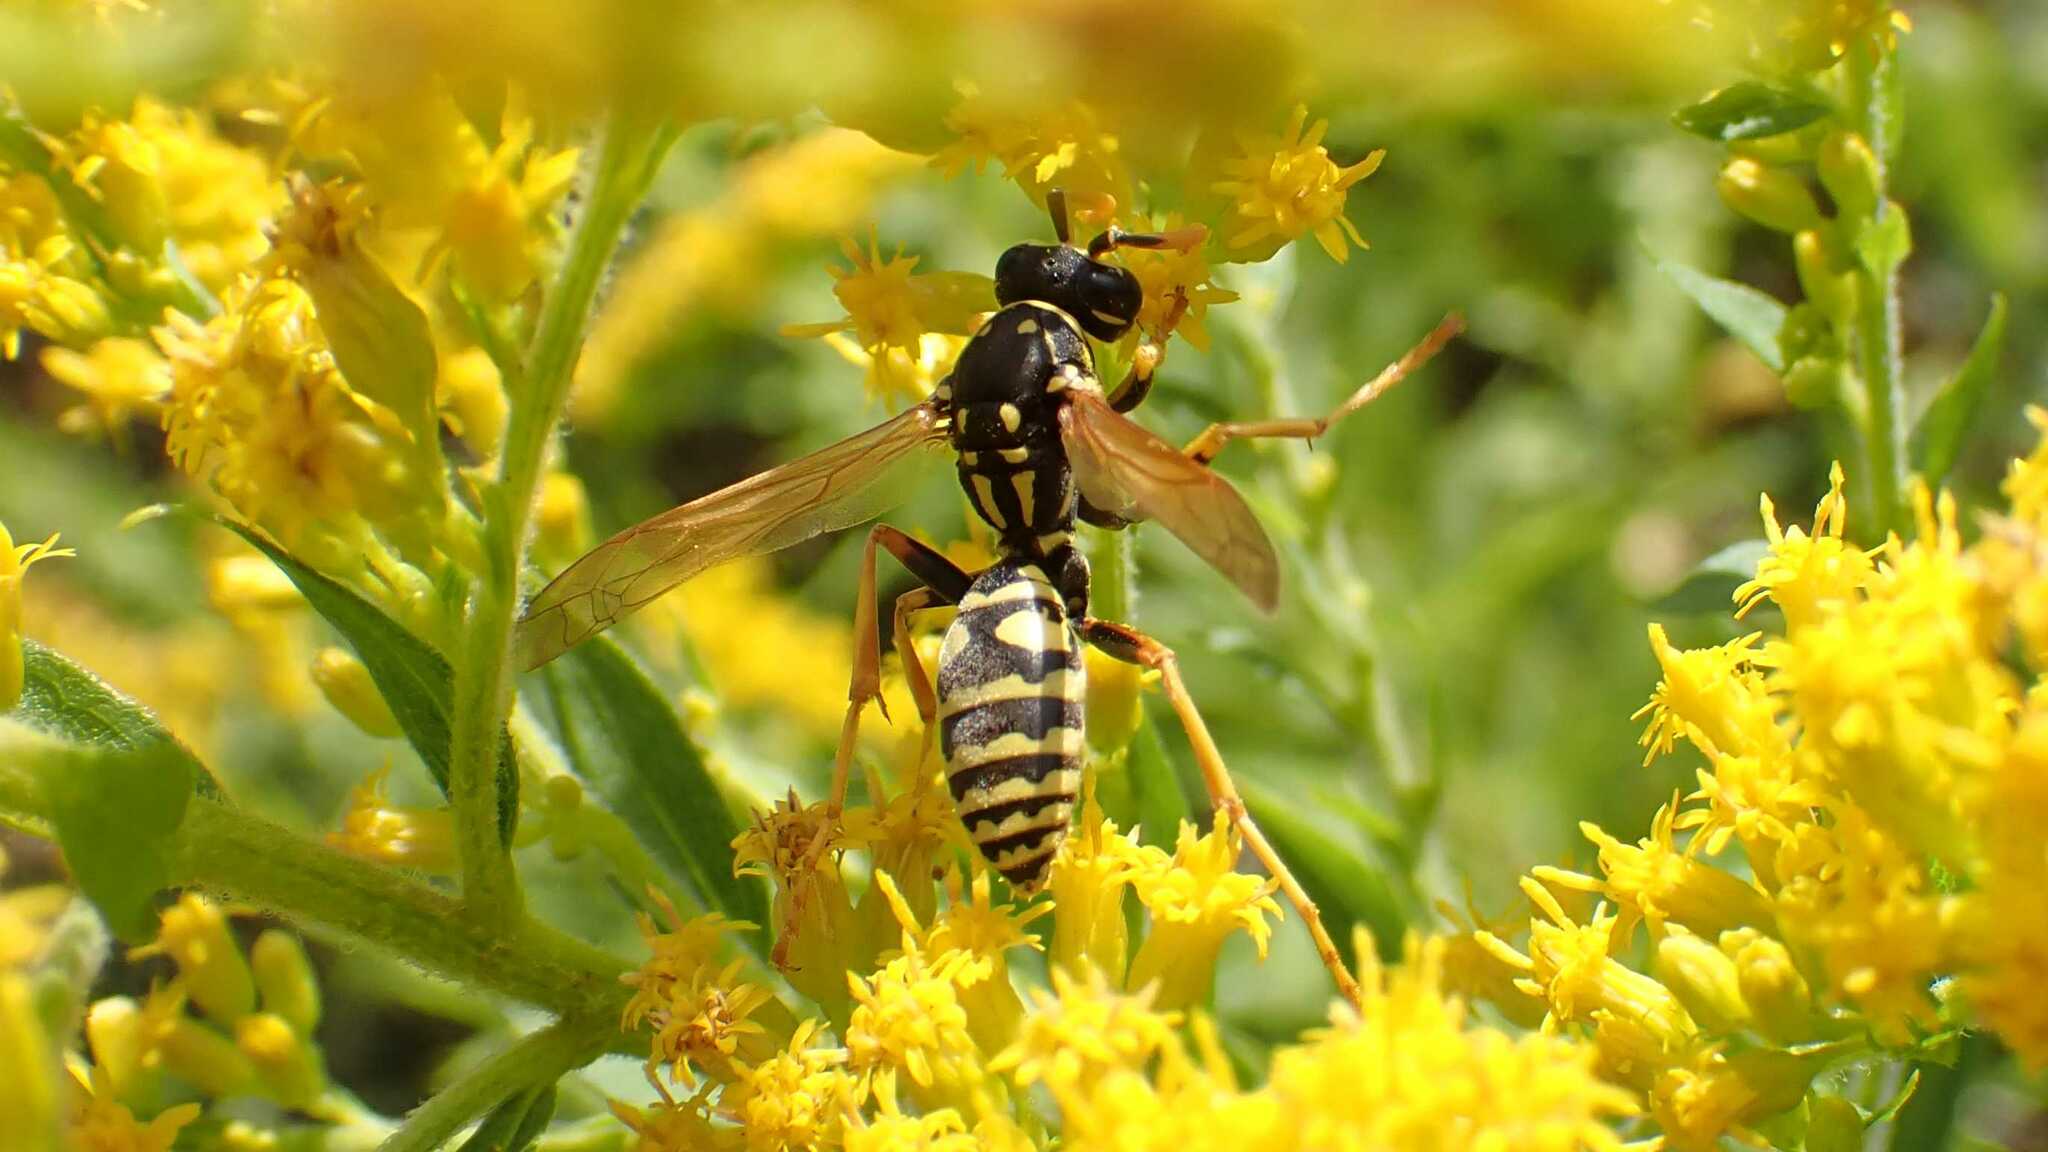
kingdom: Animalia
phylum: Arthropoda
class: Insecta
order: Hymenoptera
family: Eumenidae
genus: Polistes
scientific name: Polistes dominula
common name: Paper wasp
